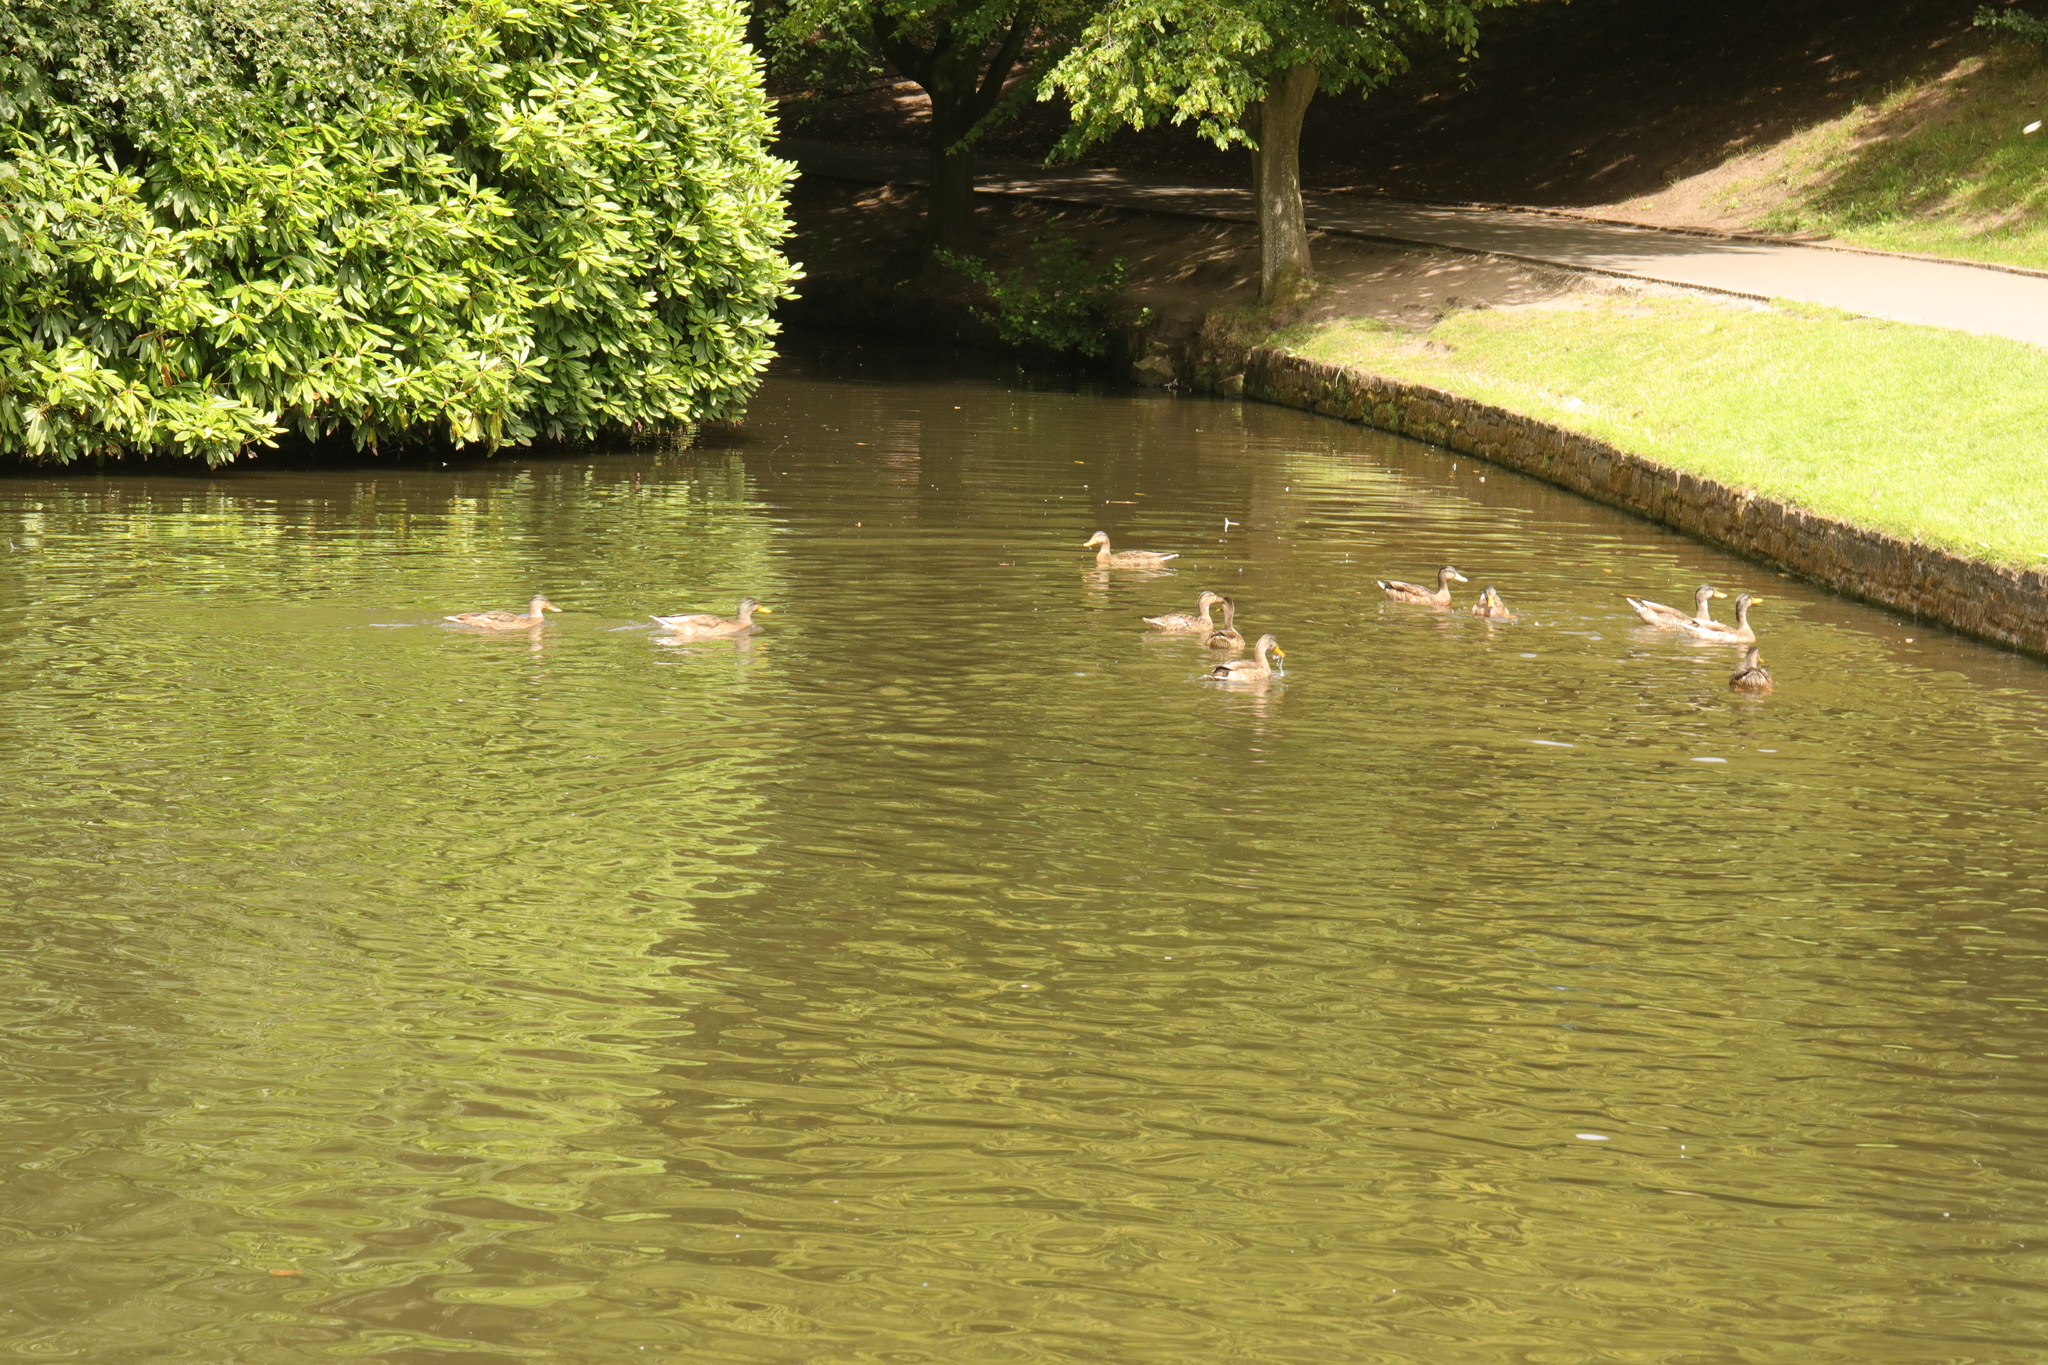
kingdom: Animalia
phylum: Chordata
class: Aves
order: Anseriformes
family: Anatidae
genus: Anas
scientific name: Anas platyrhynchos
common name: Mallard
